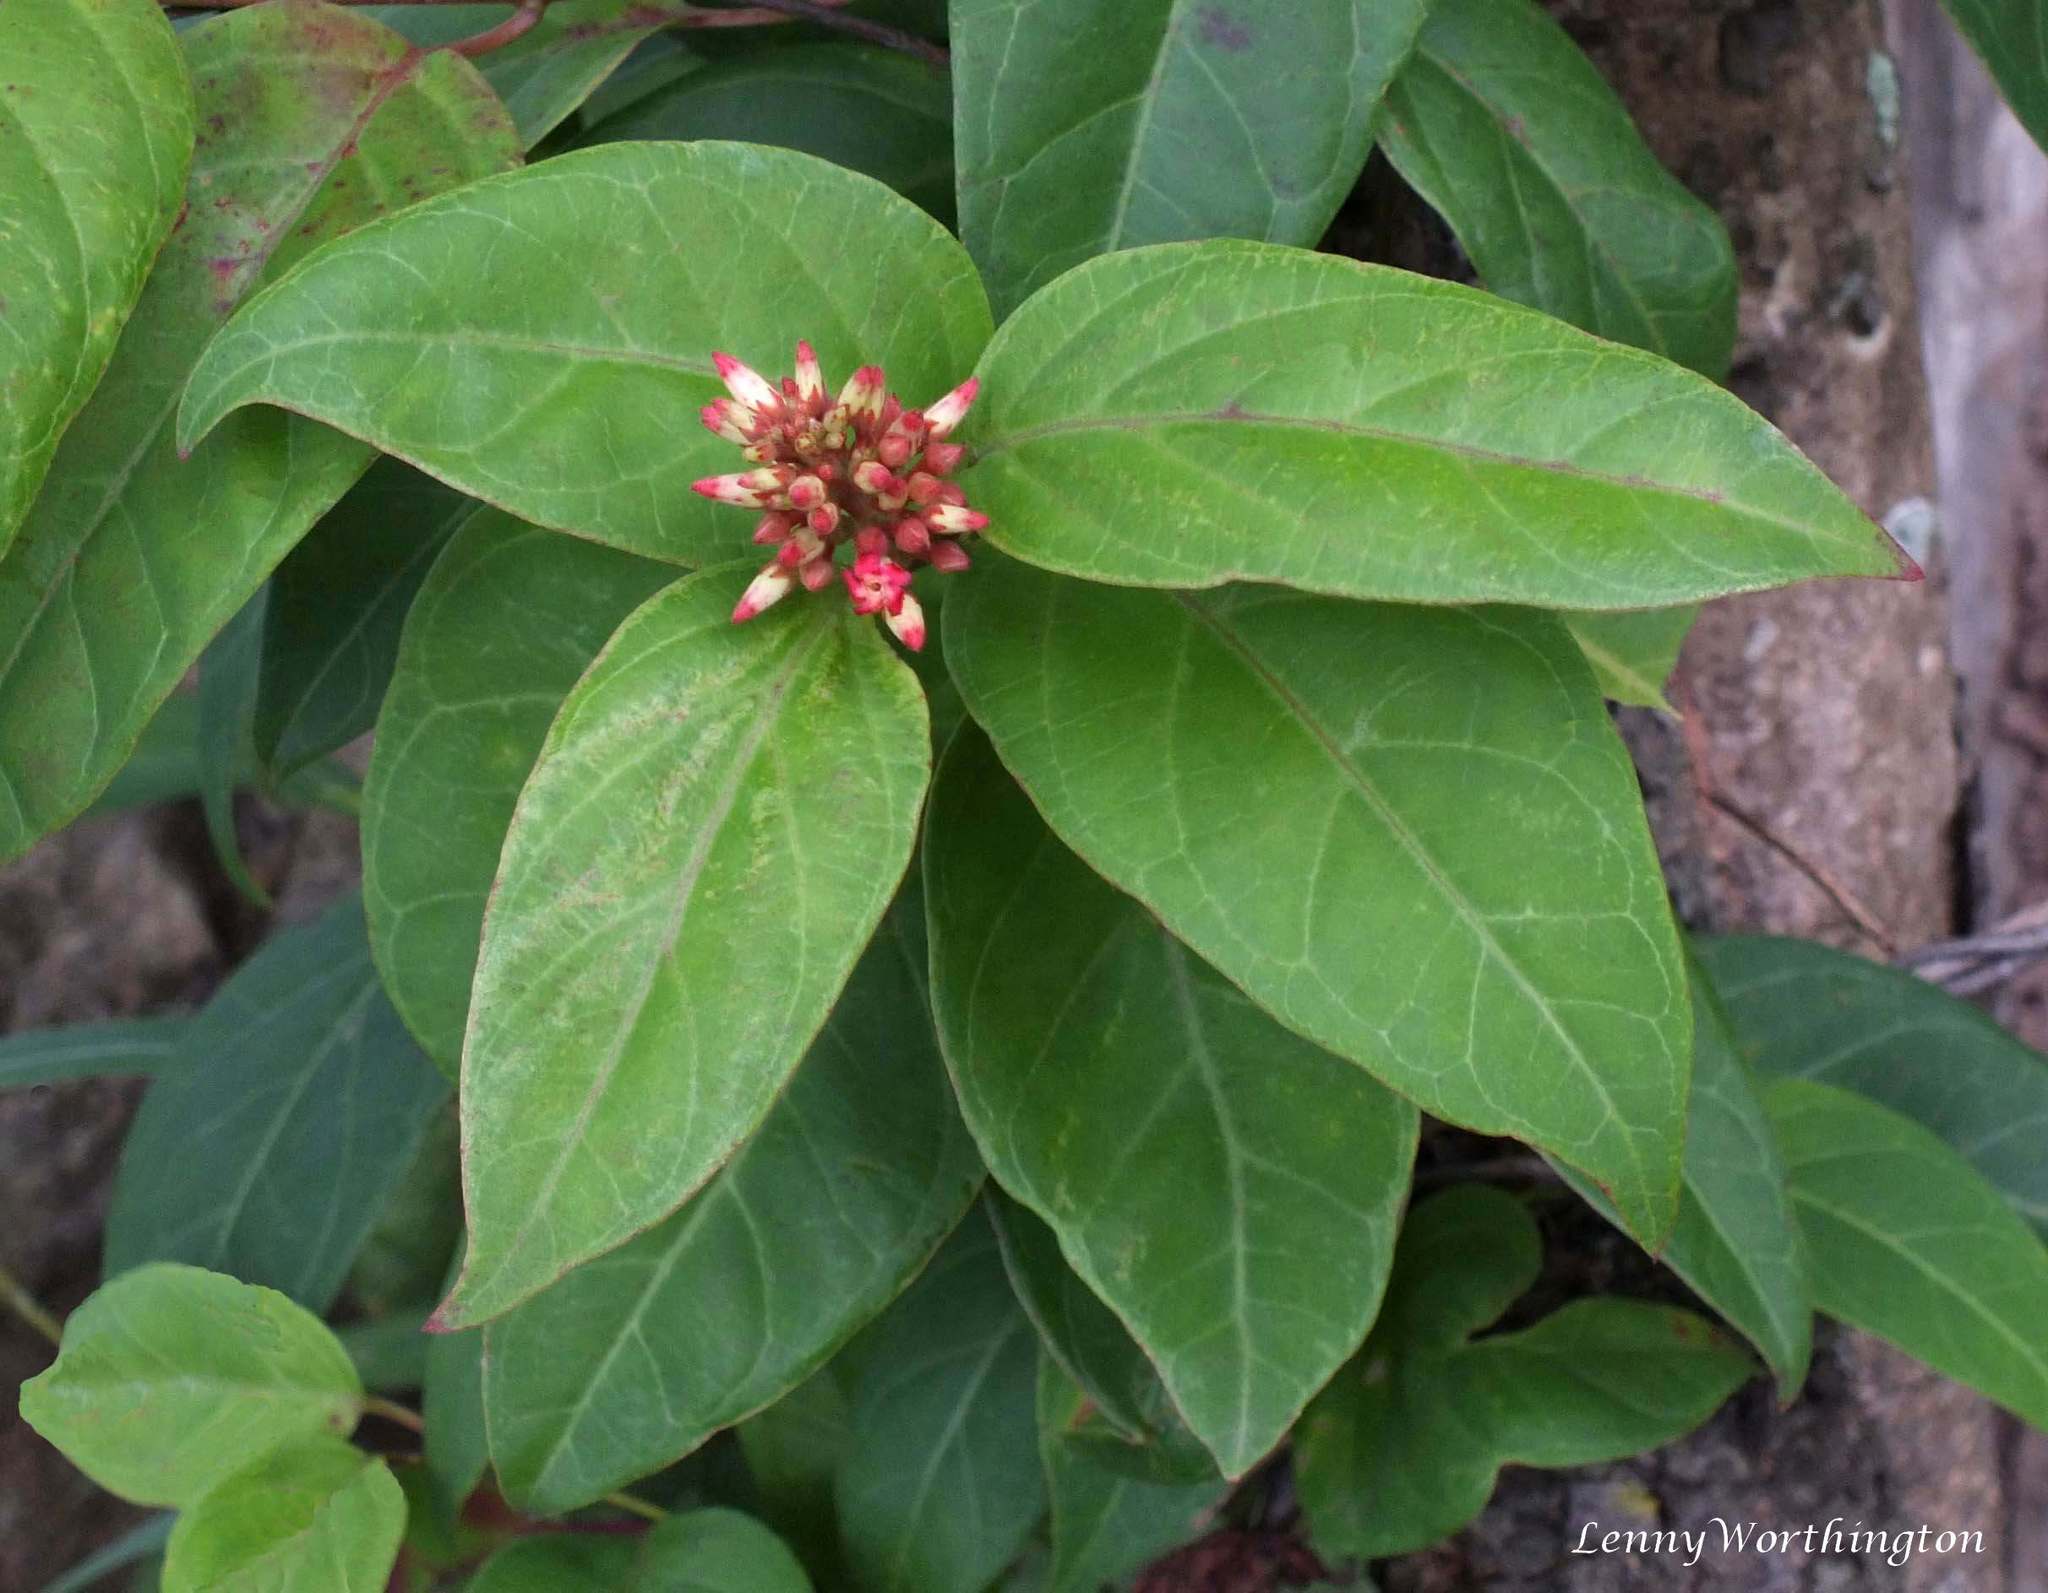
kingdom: Plantae
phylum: Tracheophyta
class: Magnoliopsida
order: Gentianales
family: Apocynaceae
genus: Urceola
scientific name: Urceola polymorpha
